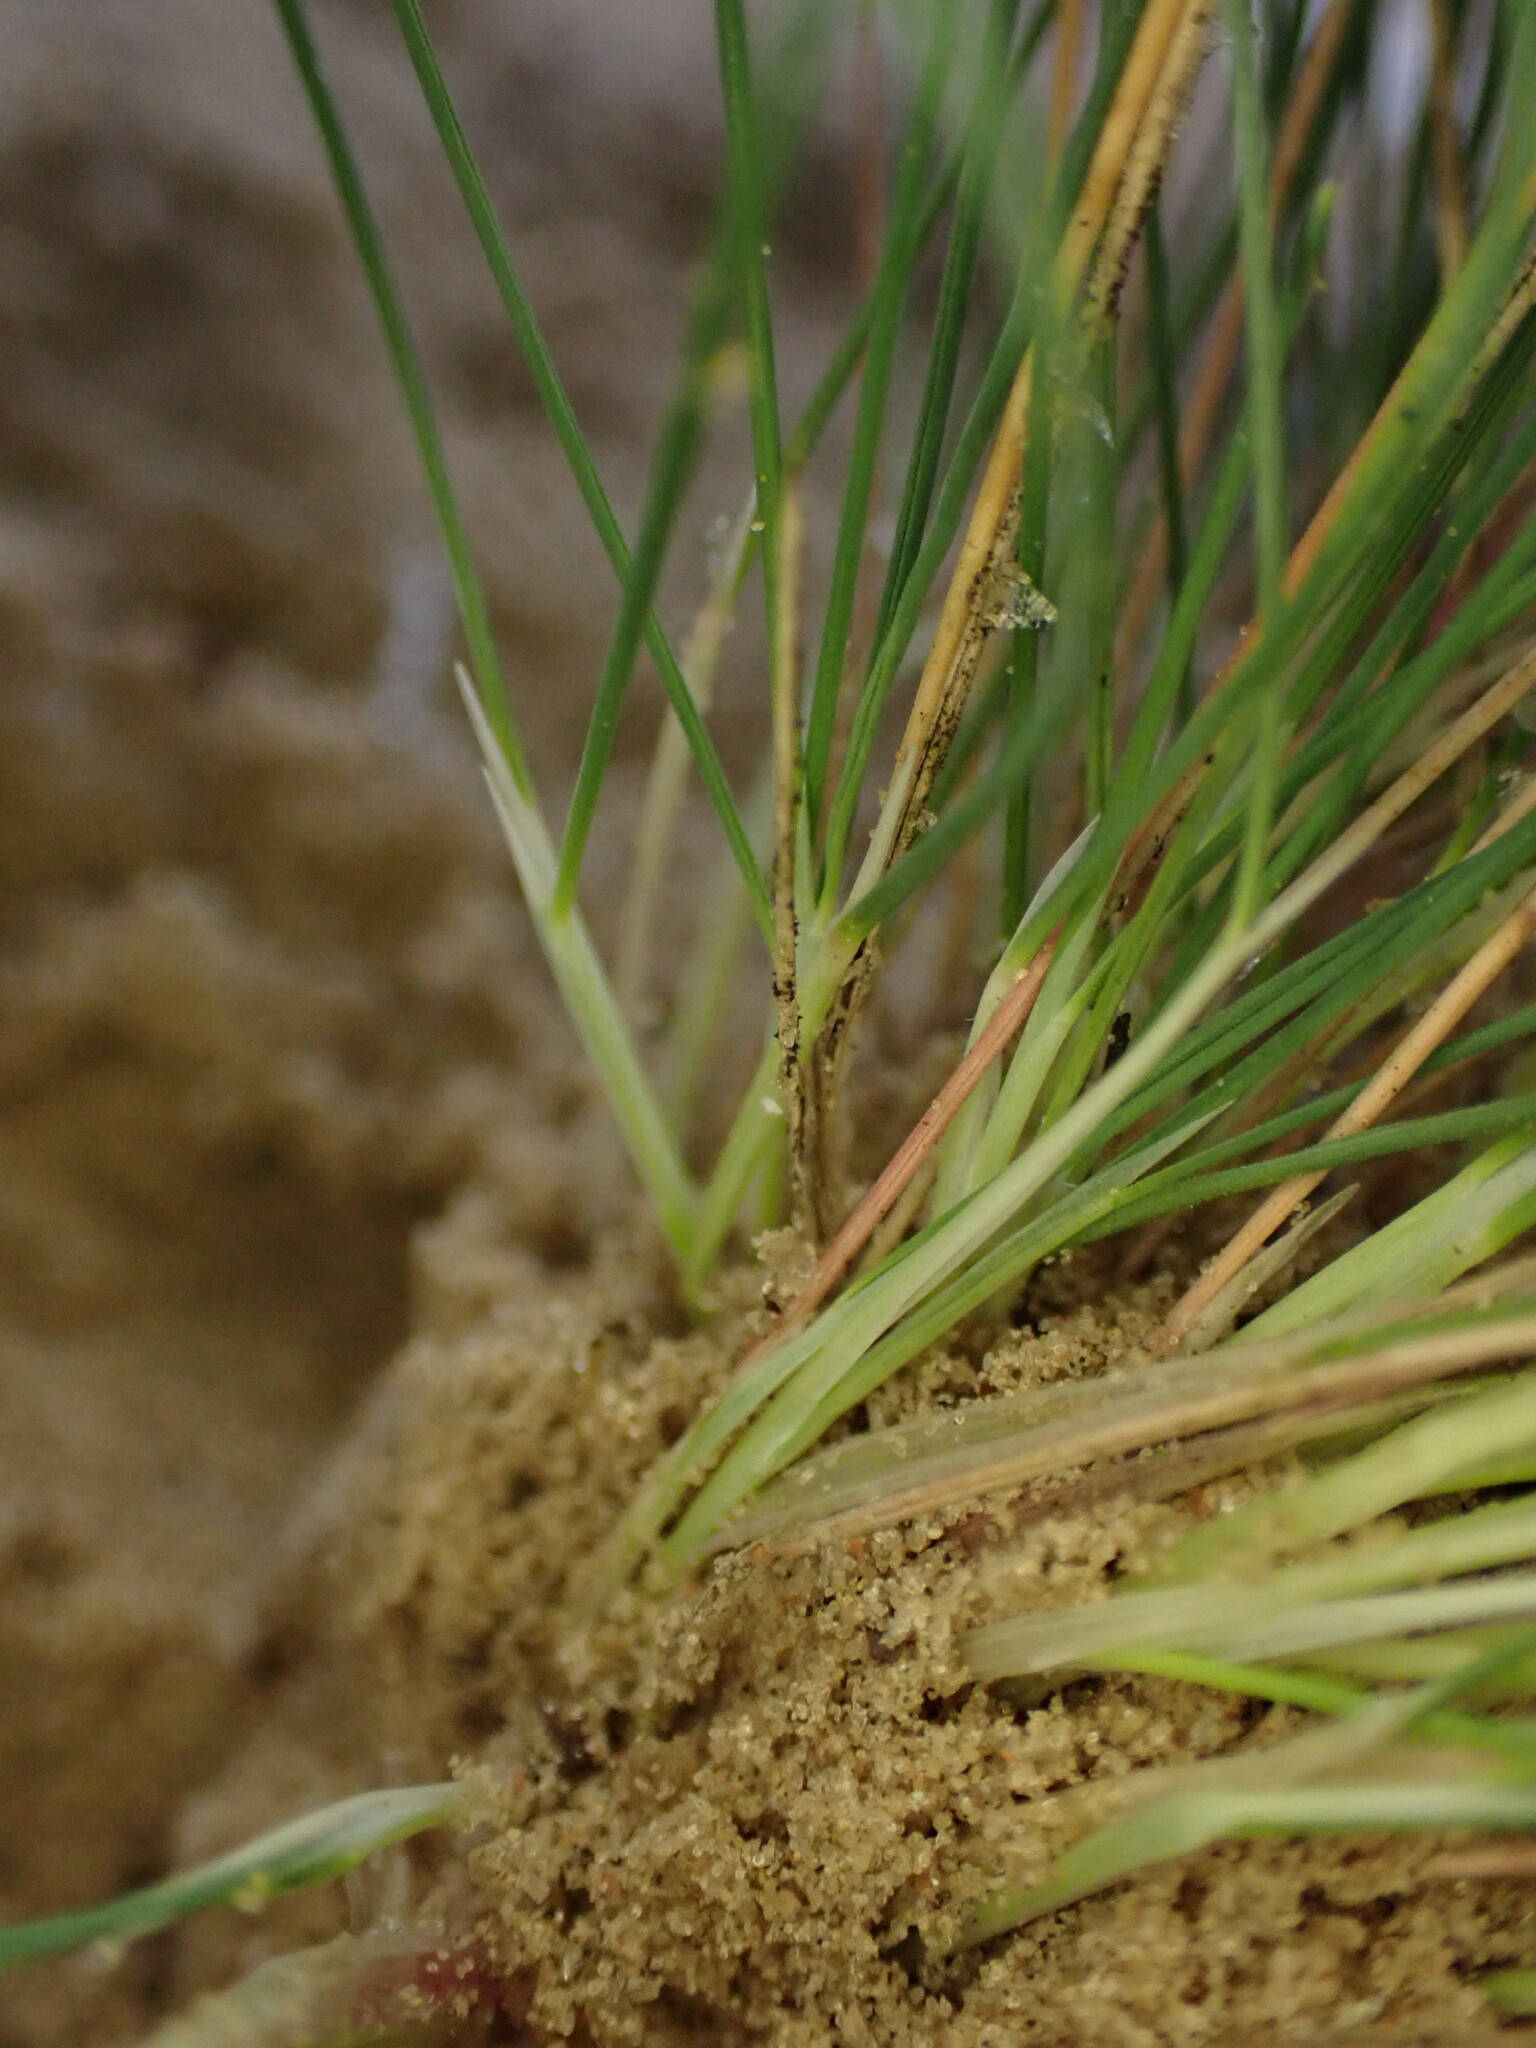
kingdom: Plantae
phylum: Tracheophyta
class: Liliopsida
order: Poales
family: Poaceae
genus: Corynephorus
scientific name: Corynephorus canescens
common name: Grey hair-grass
